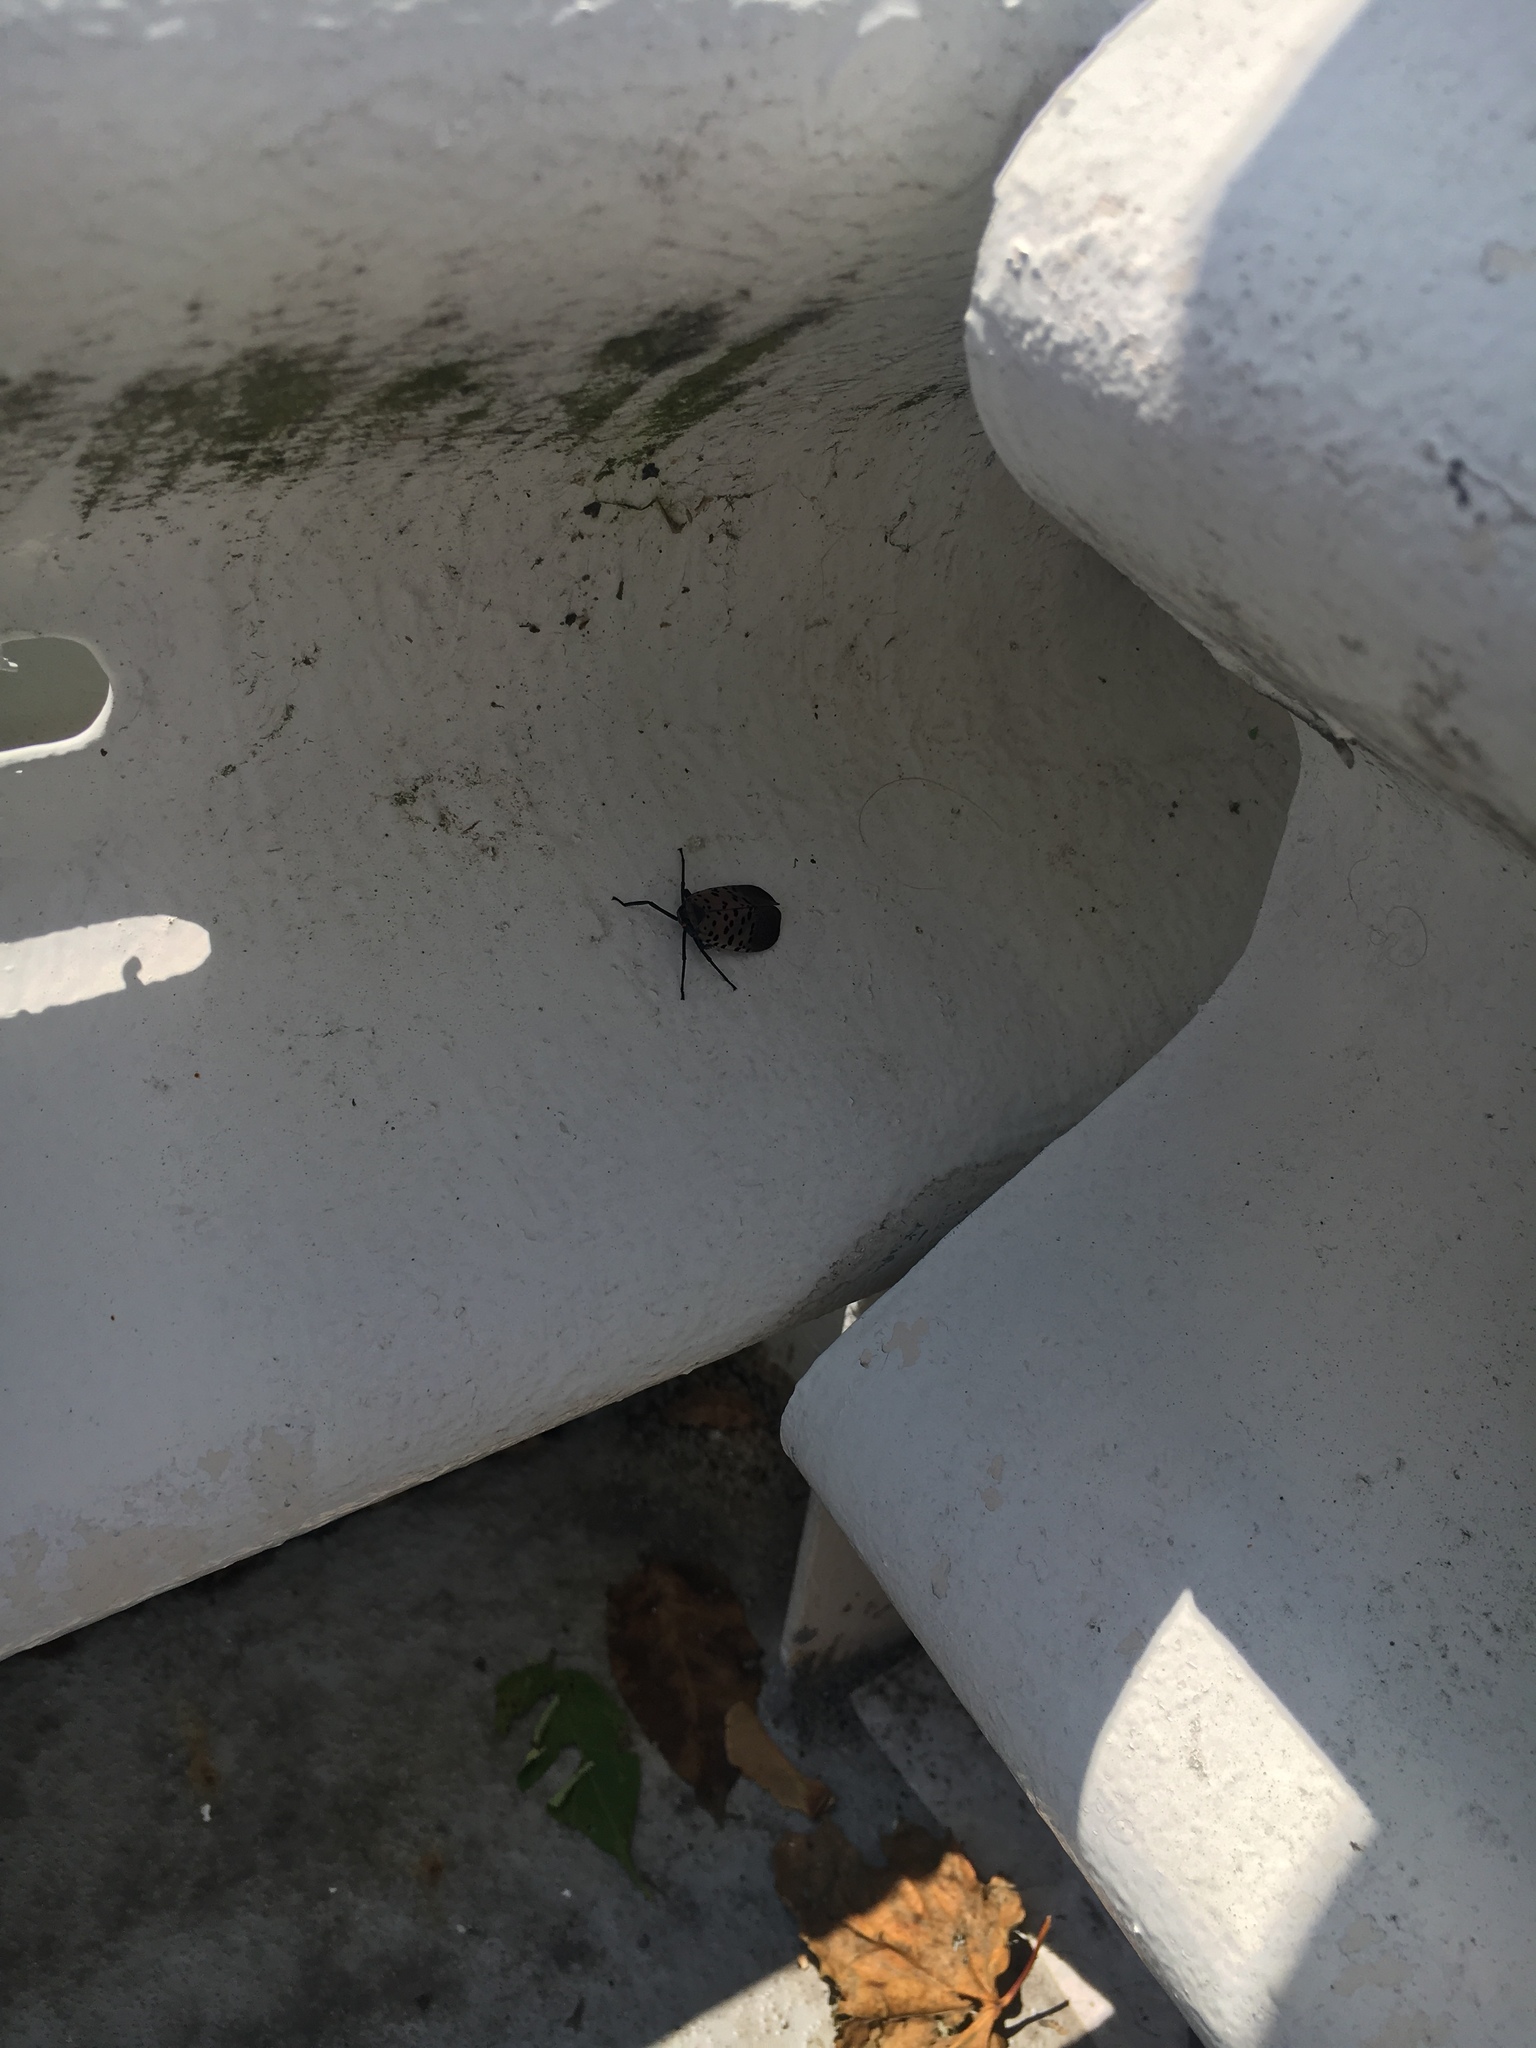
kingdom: Animalia
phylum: Arthropoda
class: Insecta
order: Hemiptera
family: Fulgoridae
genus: Lycorma
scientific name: Lycorma delicatula
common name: Spotted lanternfly
